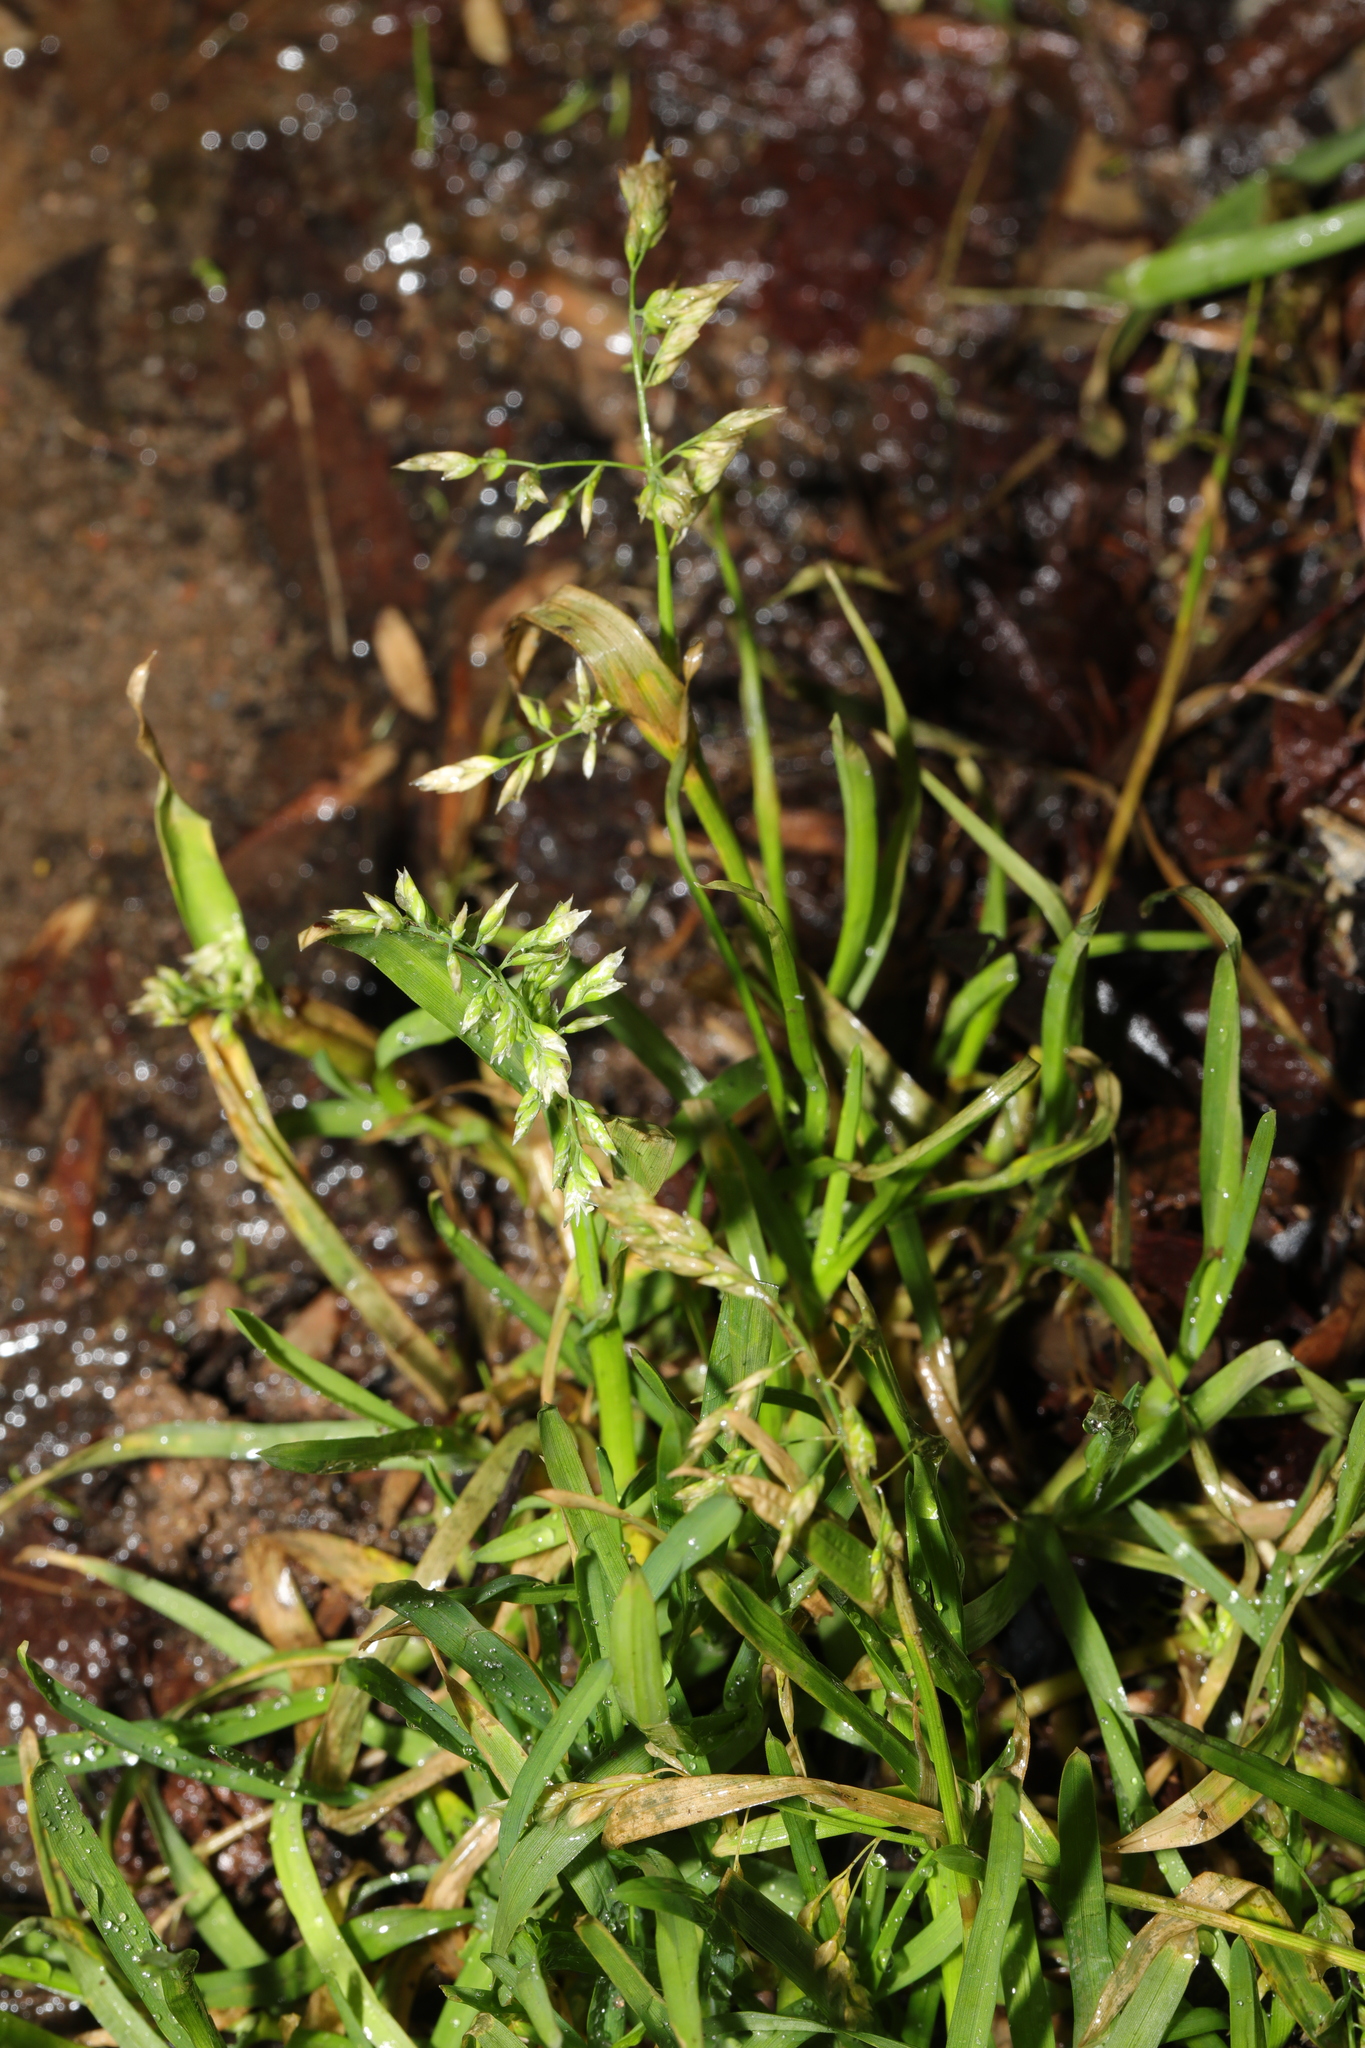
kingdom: Plantae
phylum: Tracheophyta
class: Liliopsida
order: Poales
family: Poaceae
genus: Poa
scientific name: Poa annua
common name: Annual bluegrass
